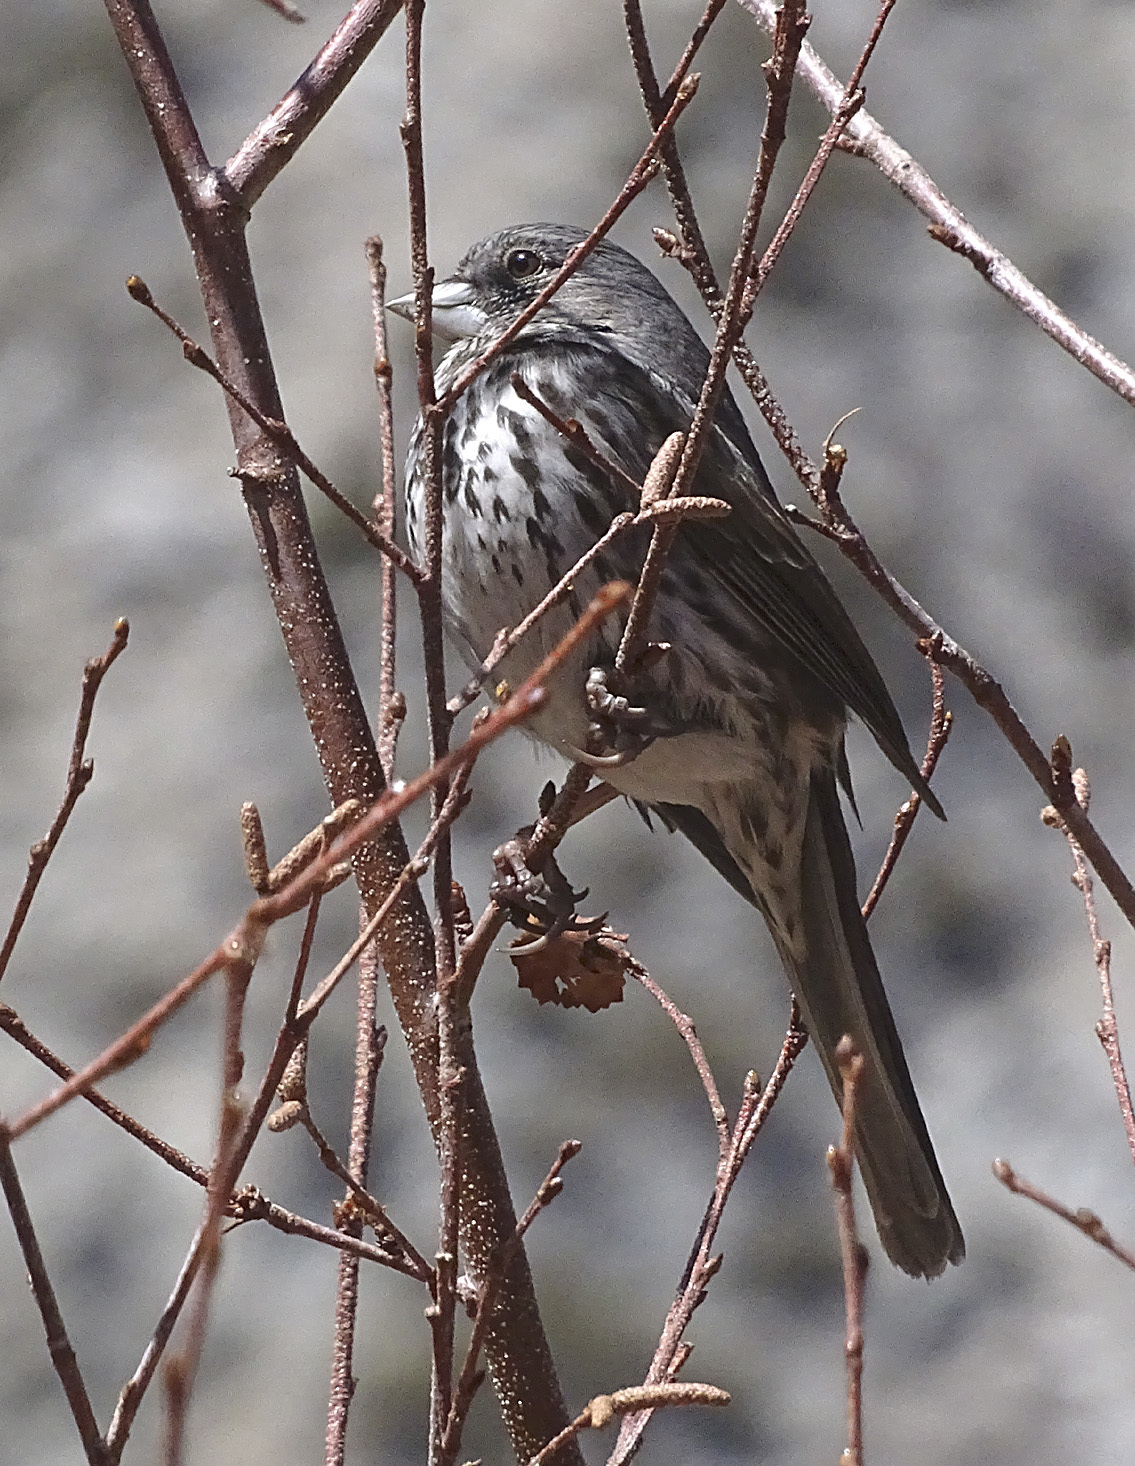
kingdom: Animalia
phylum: Chordata
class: Aves
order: Passeriformes
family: Passerellidae
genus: Passerella
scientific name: Passerella iliaca
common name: Fox sparrow
